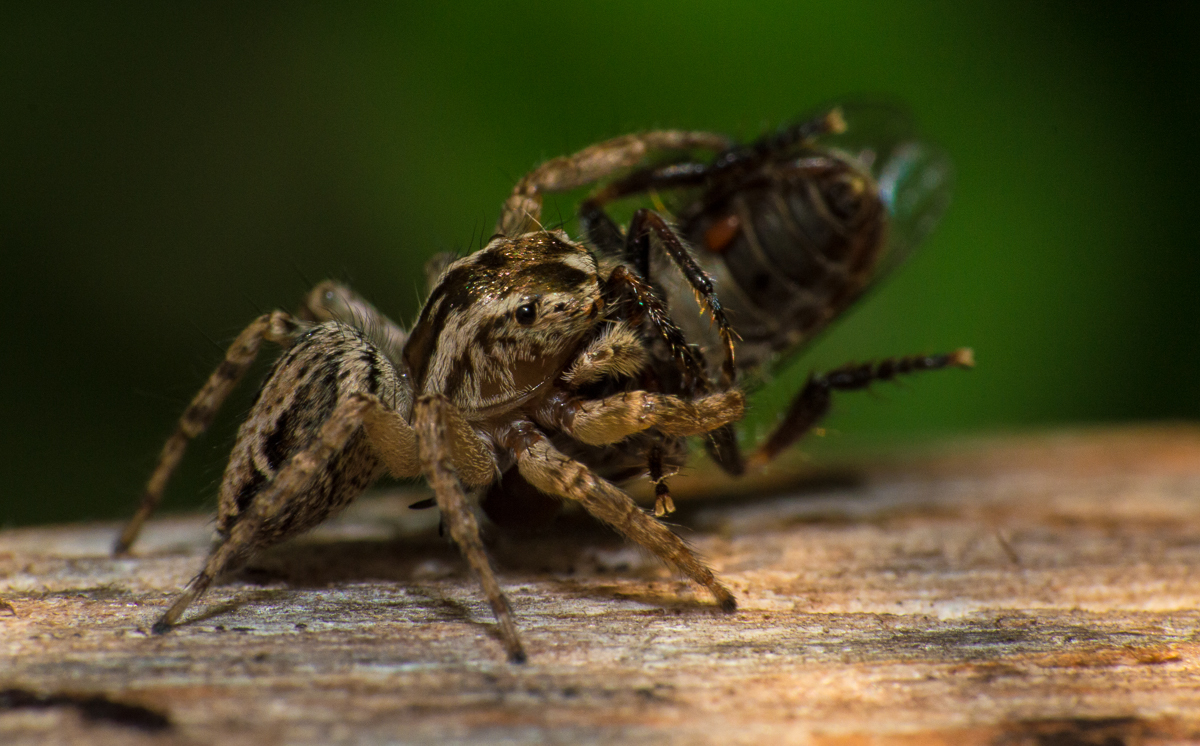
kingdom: Animalia
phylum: Arthropoda
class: Arachnida
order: Araneae
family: Salticidae
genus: Aphirape
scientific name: Aphirape
